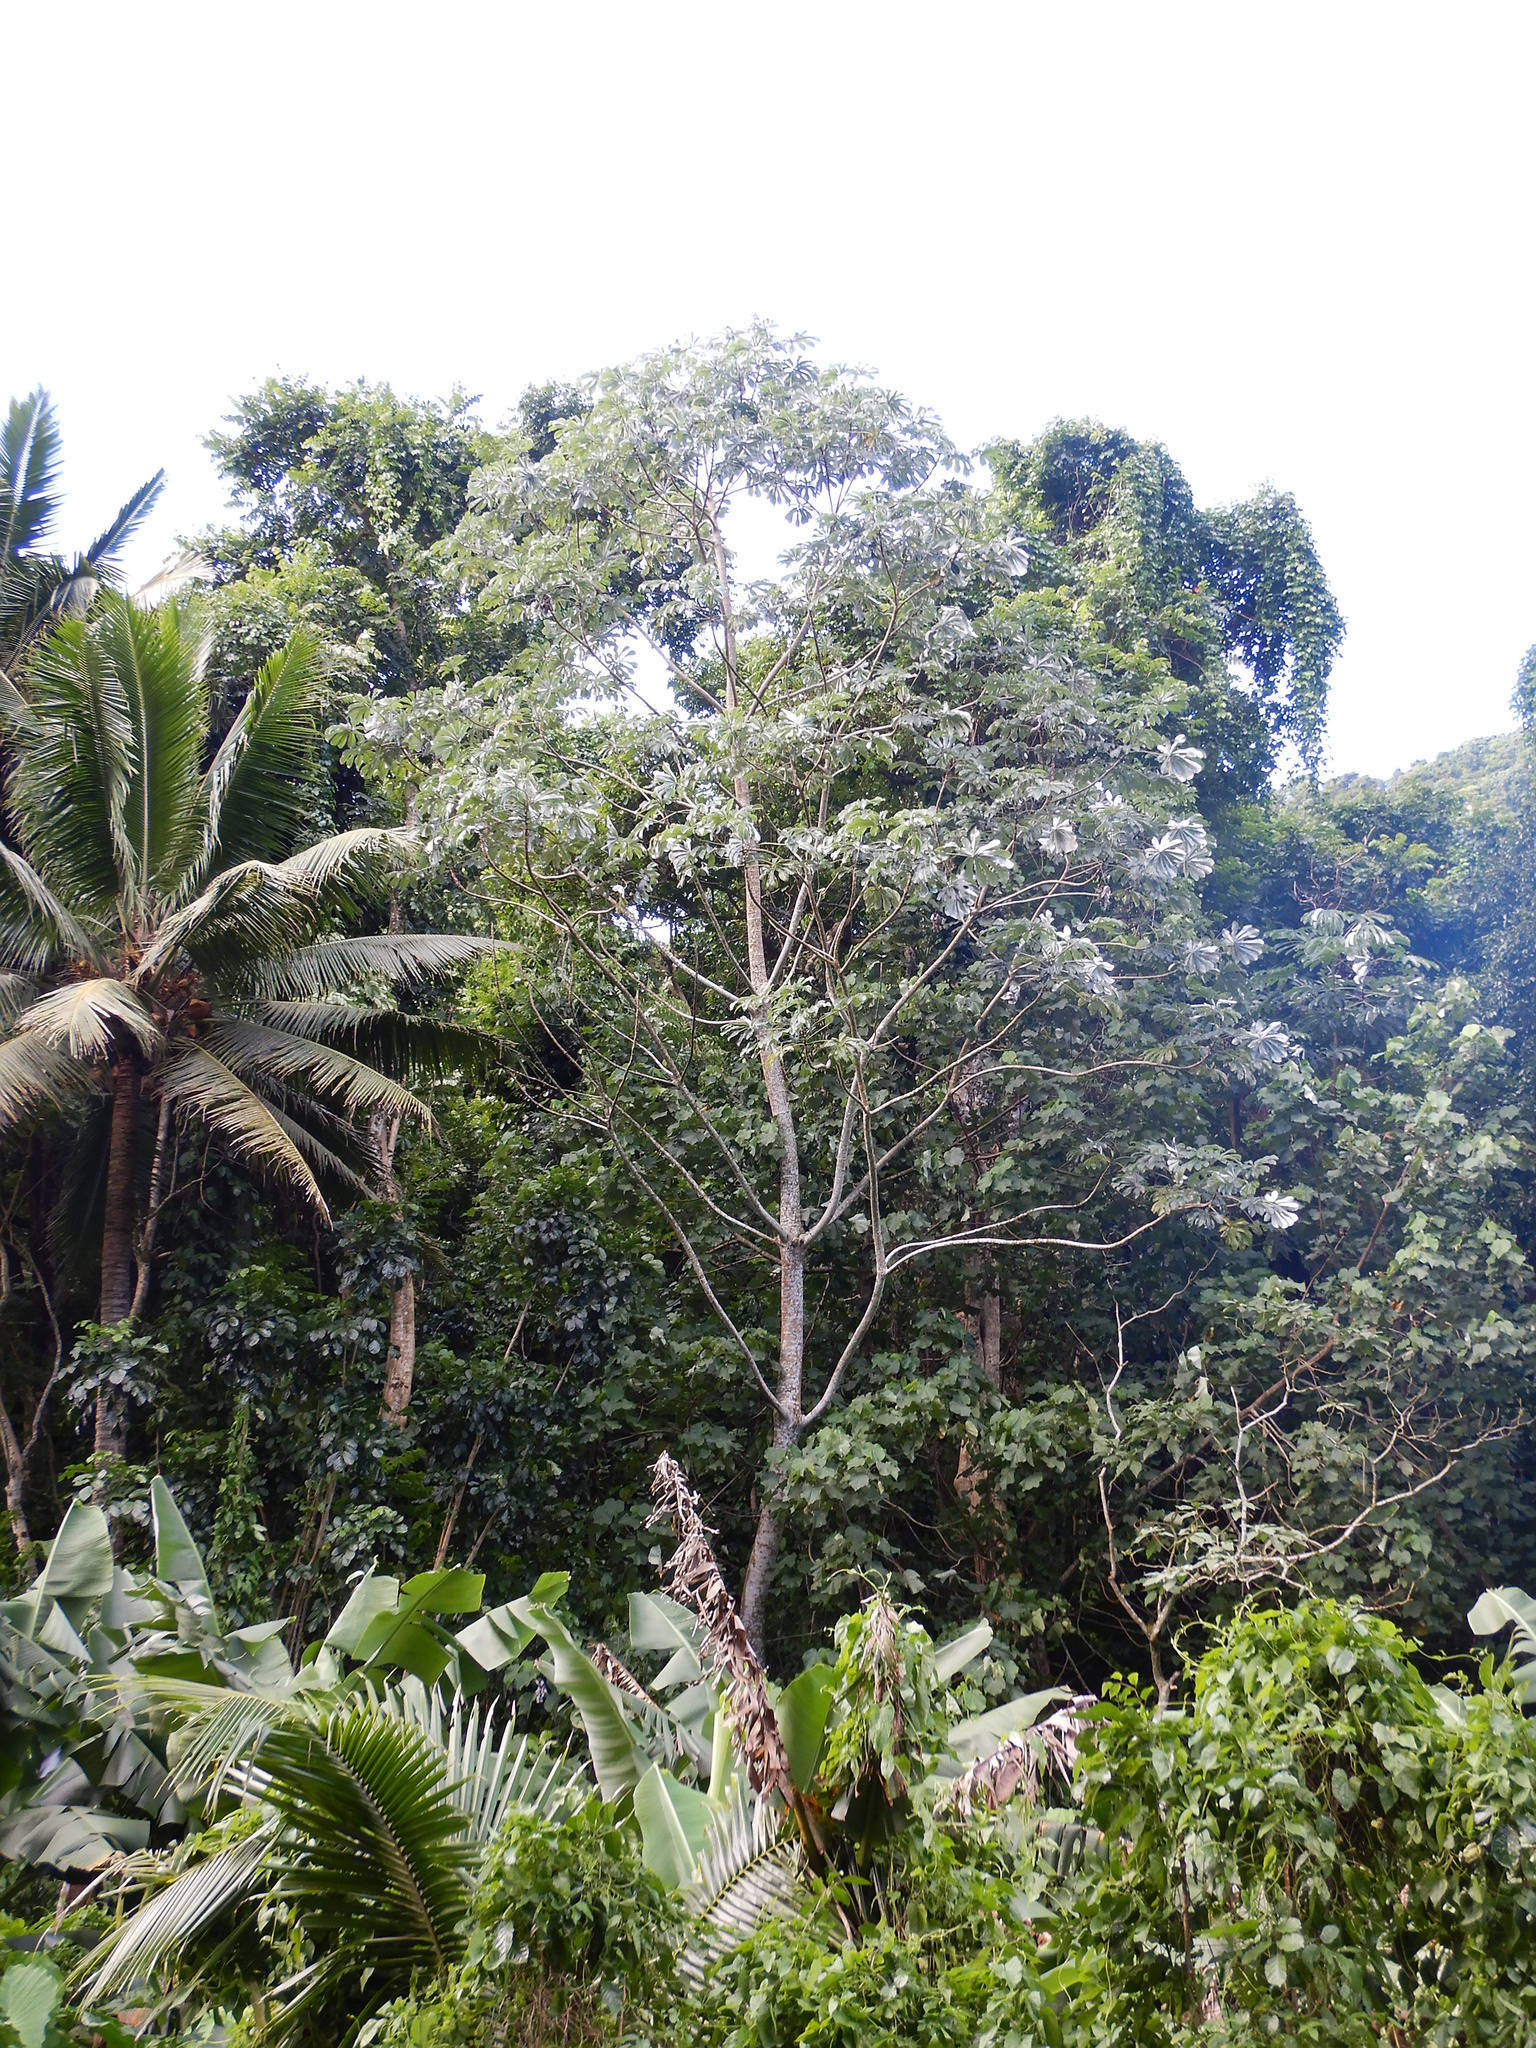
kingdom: Plantae
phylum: Tracheophyta
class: Magnoliopsida
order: Rosales
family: Urticaceae
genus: Cecropia
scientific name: Cecropia pachystachya
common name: Ambay pumpwood
